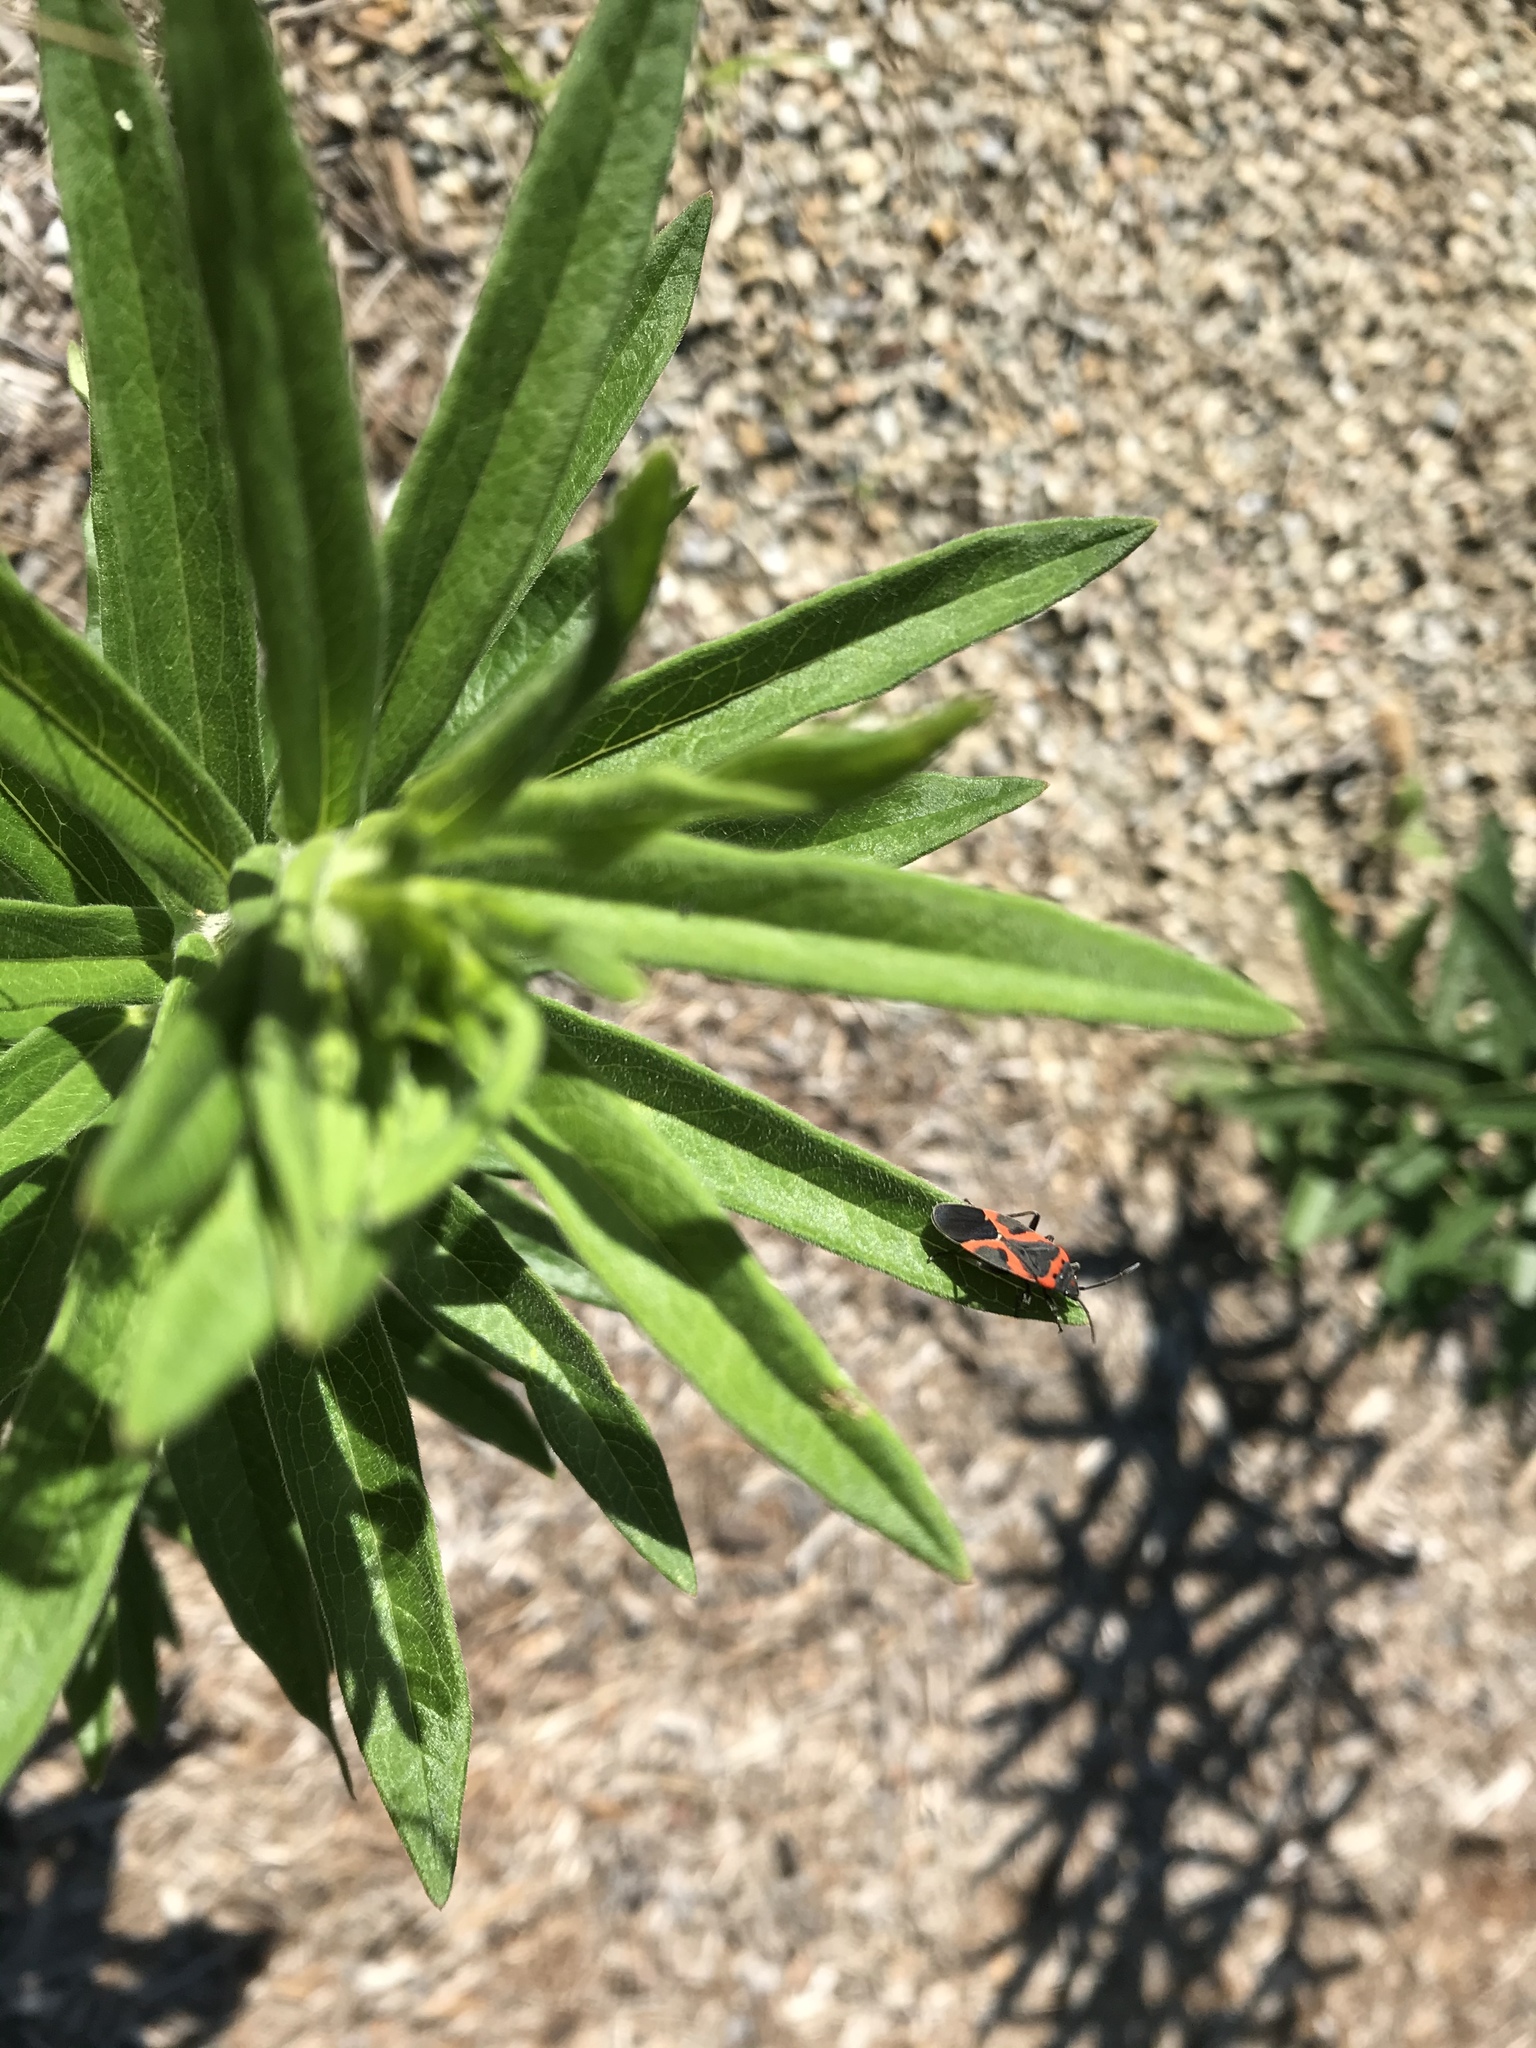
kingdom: Animalia
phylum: Arthropoda
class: Insecta
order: Hemiptera
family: Lygaeidae
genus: Lygaeus
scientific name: Lygaeus kalmii
